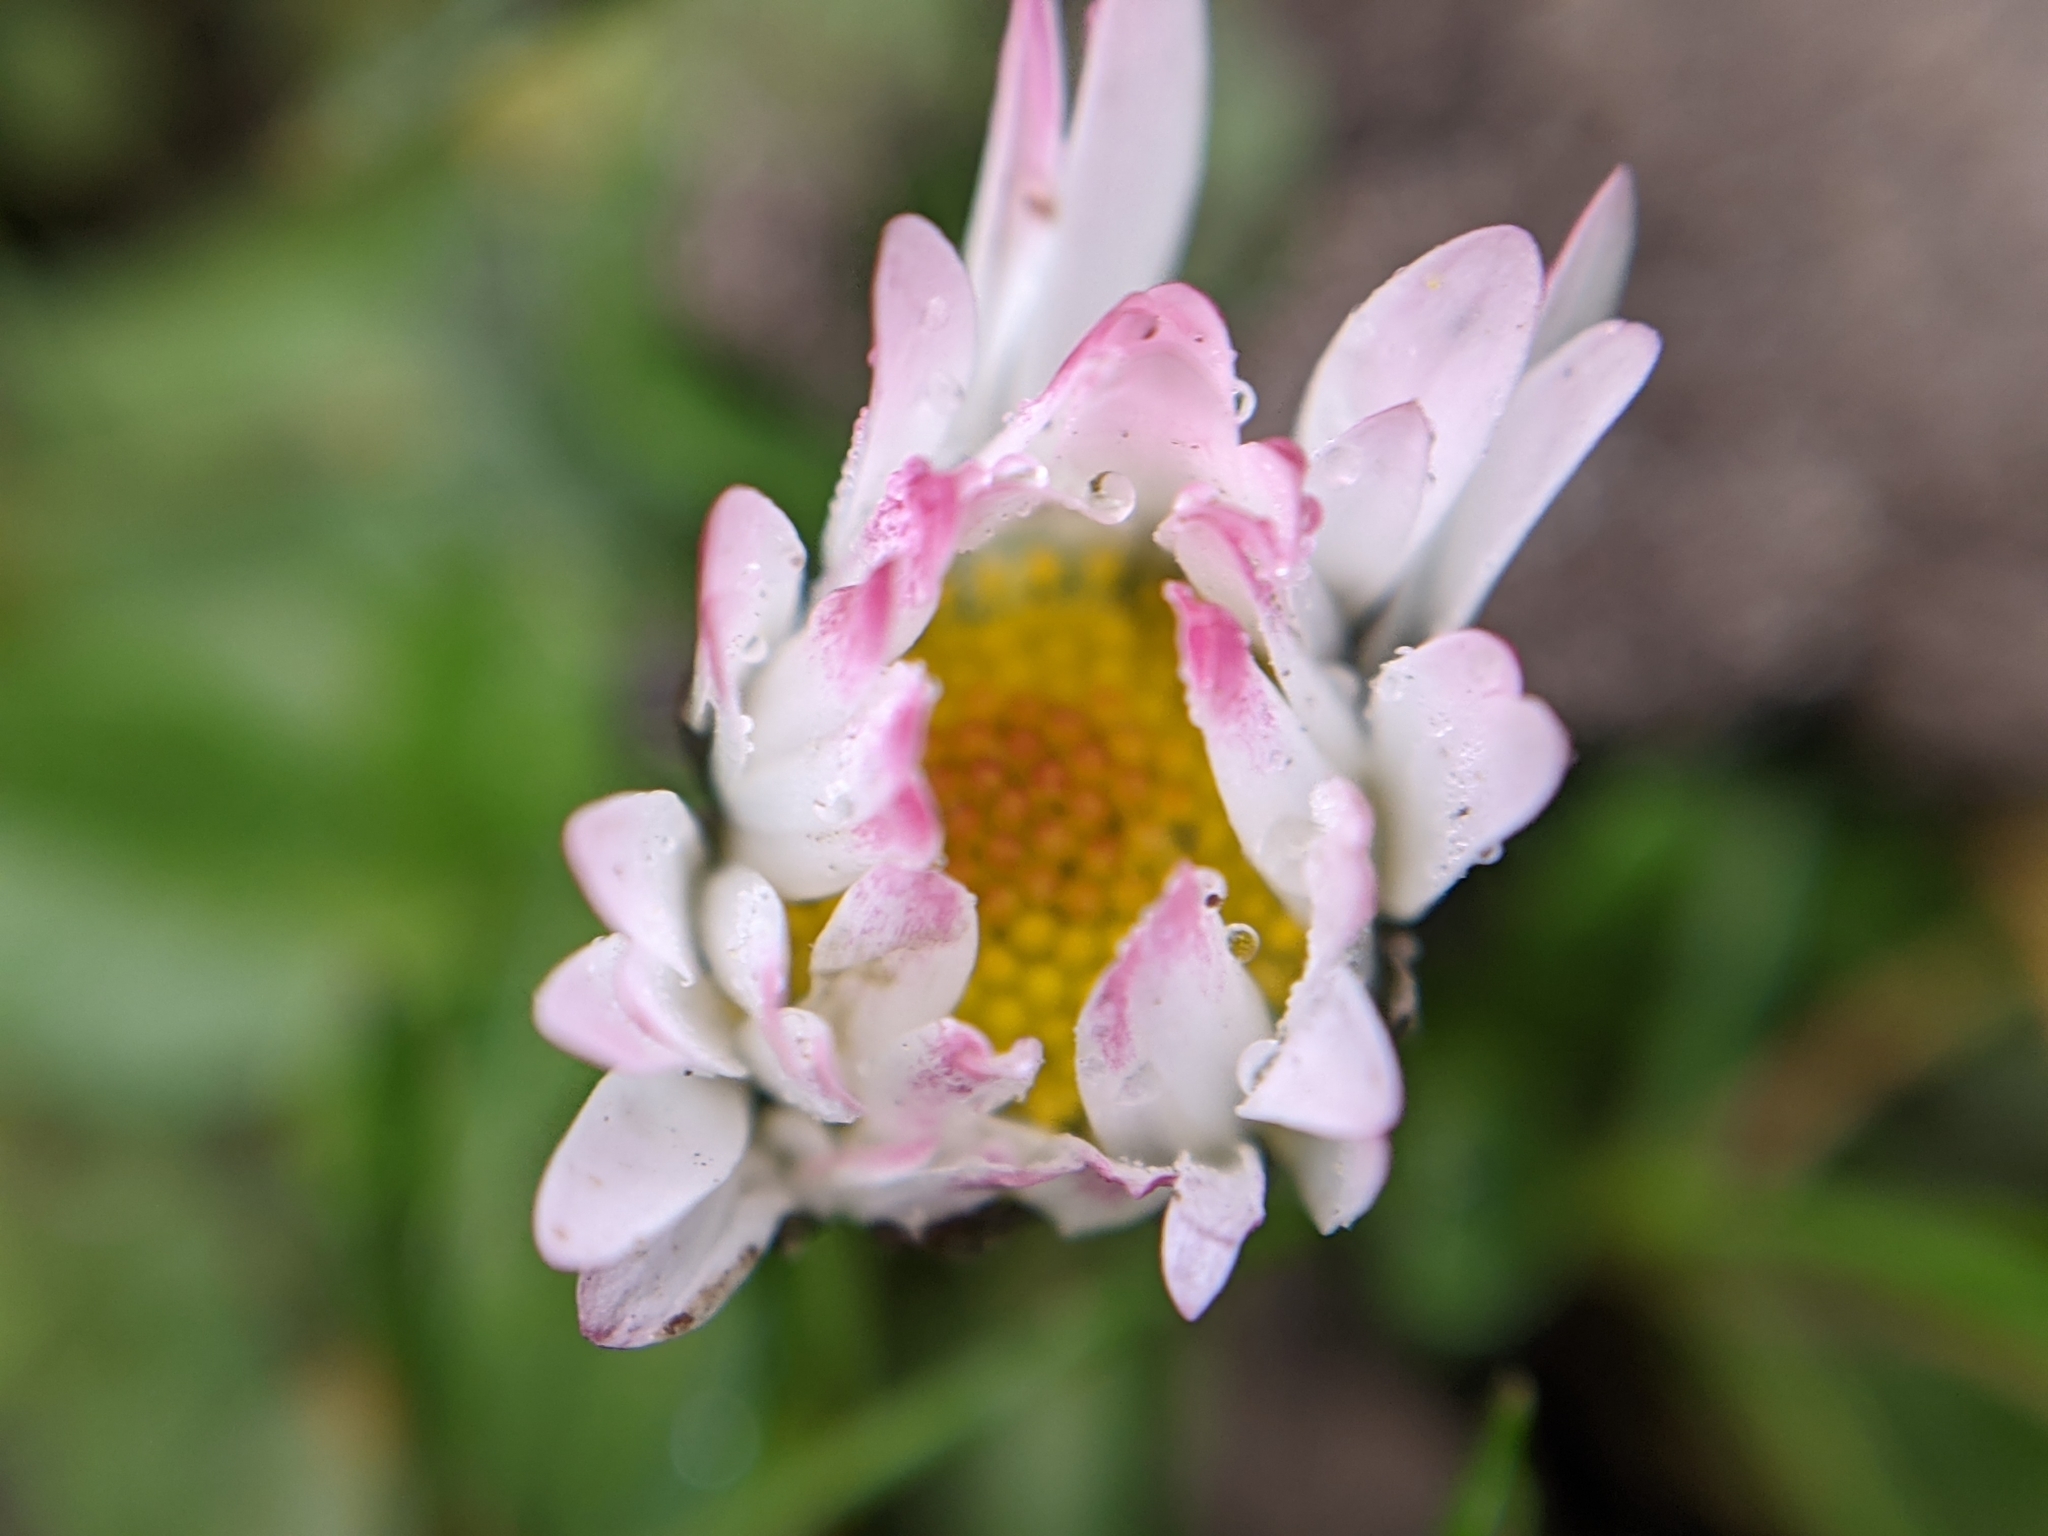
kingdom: Plantae
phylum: Tracheophyta
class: Magnoliopsida
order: Asterales
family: Asteraceae
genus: Bellis
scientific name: Bellis perennis
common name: Lawndaisy
